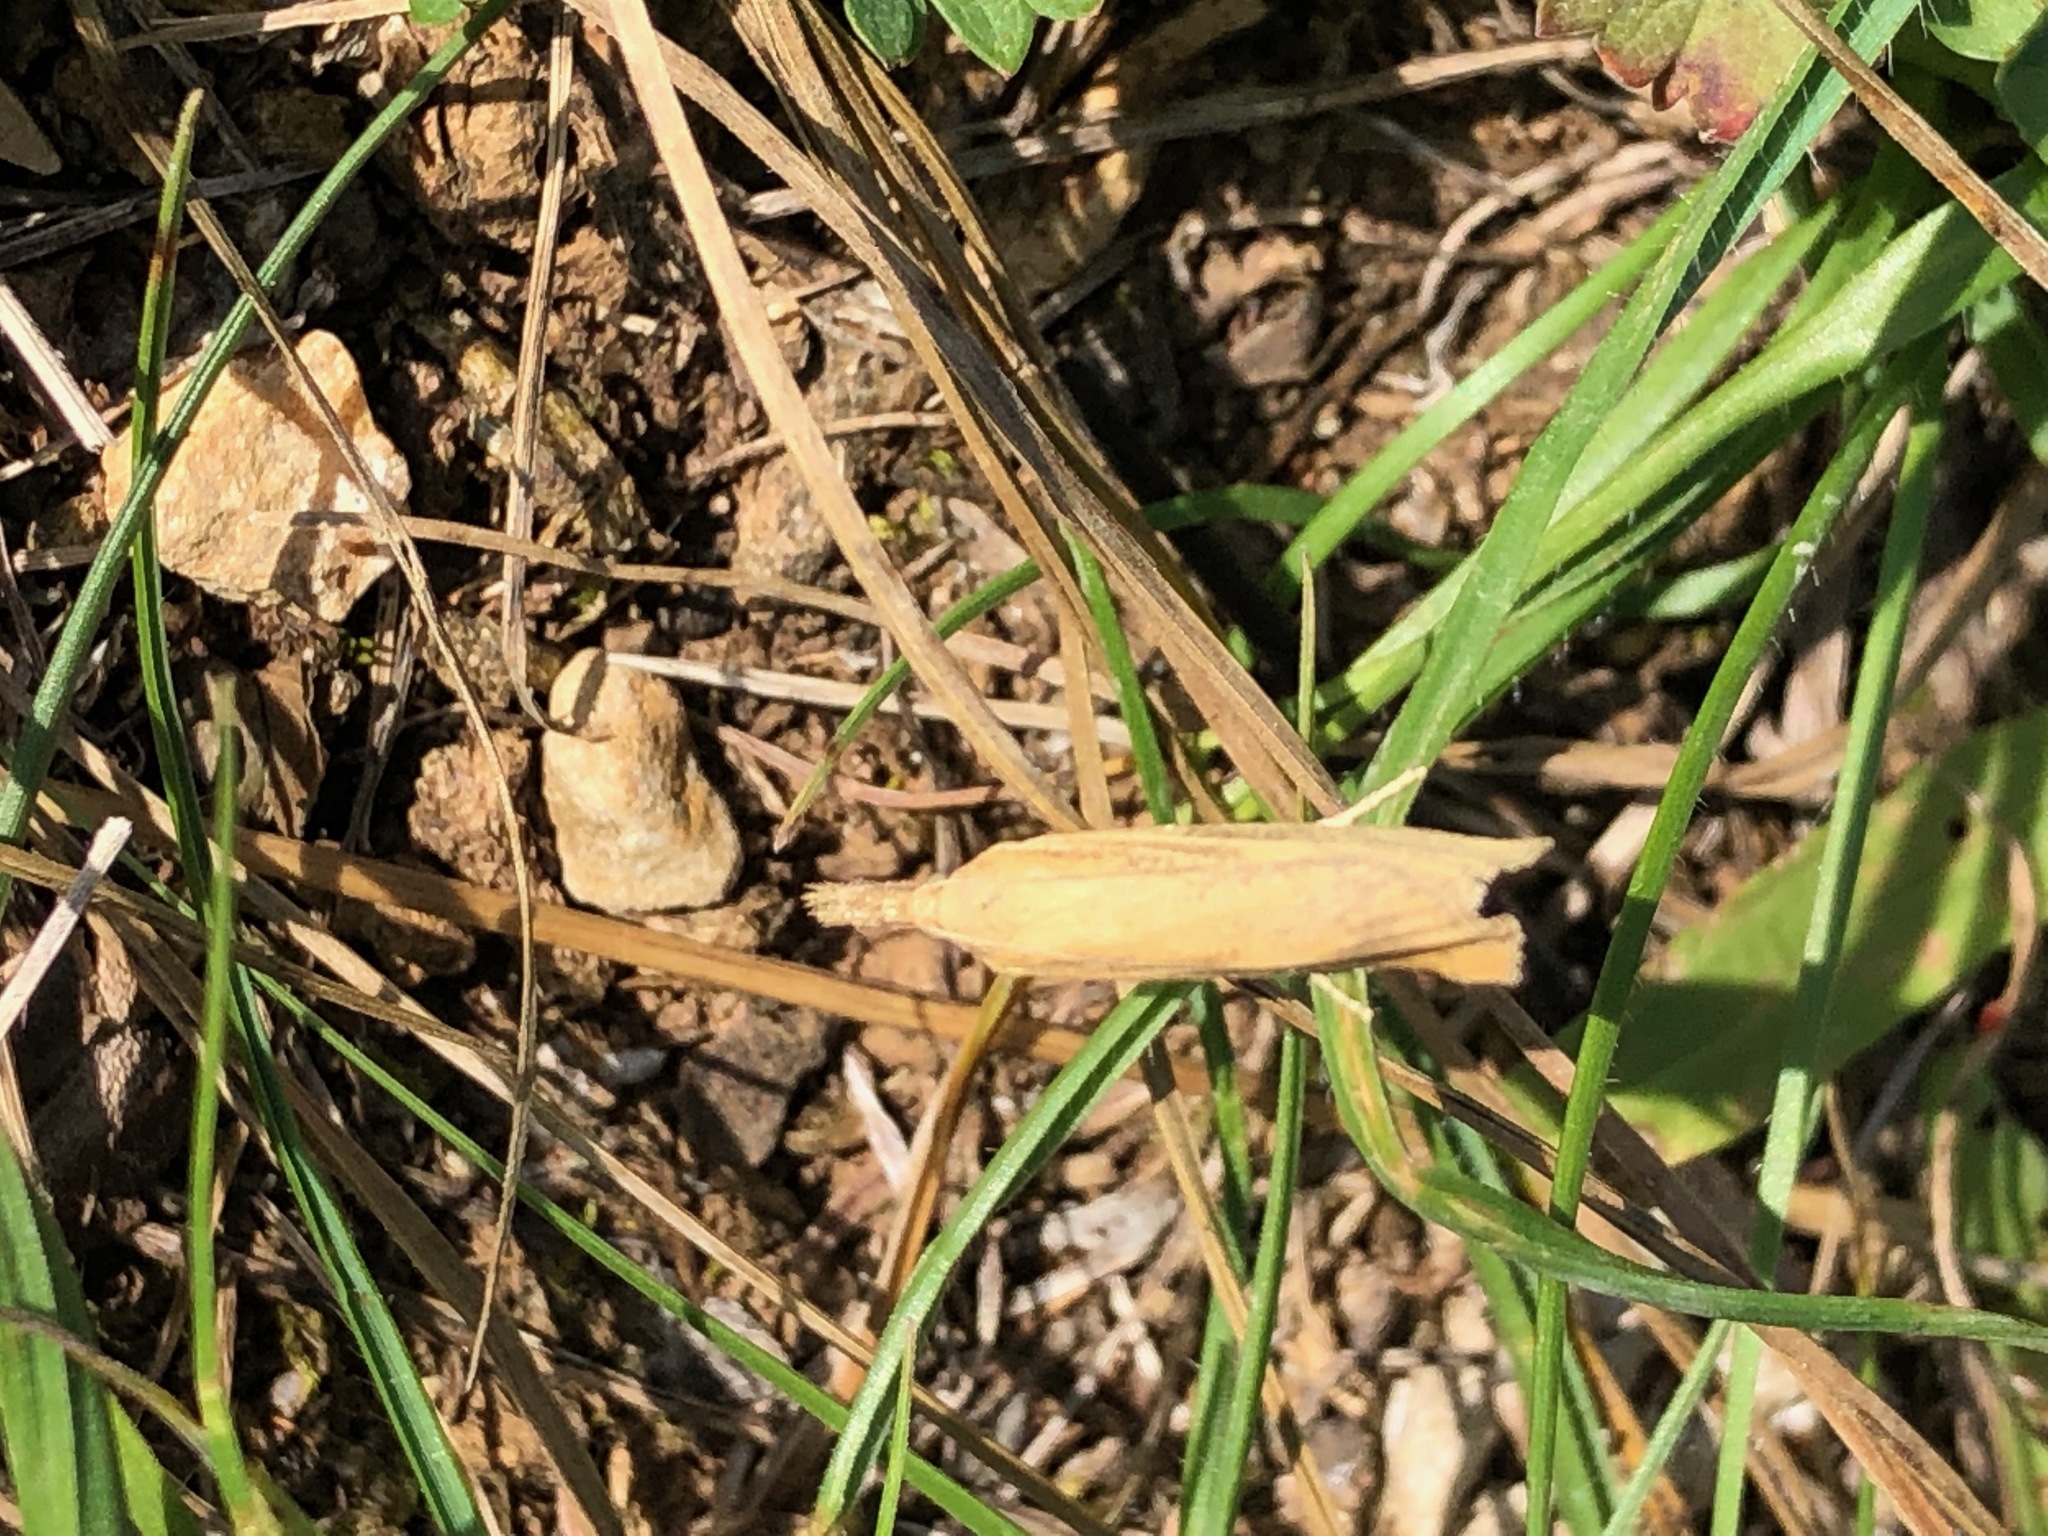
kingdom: Animalia
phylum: Arthropoda
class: Insecta
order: Lepidoptera
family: Crambidae
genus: Agriphila
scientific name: Agriphila tristellus
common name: Common grass-veneer
